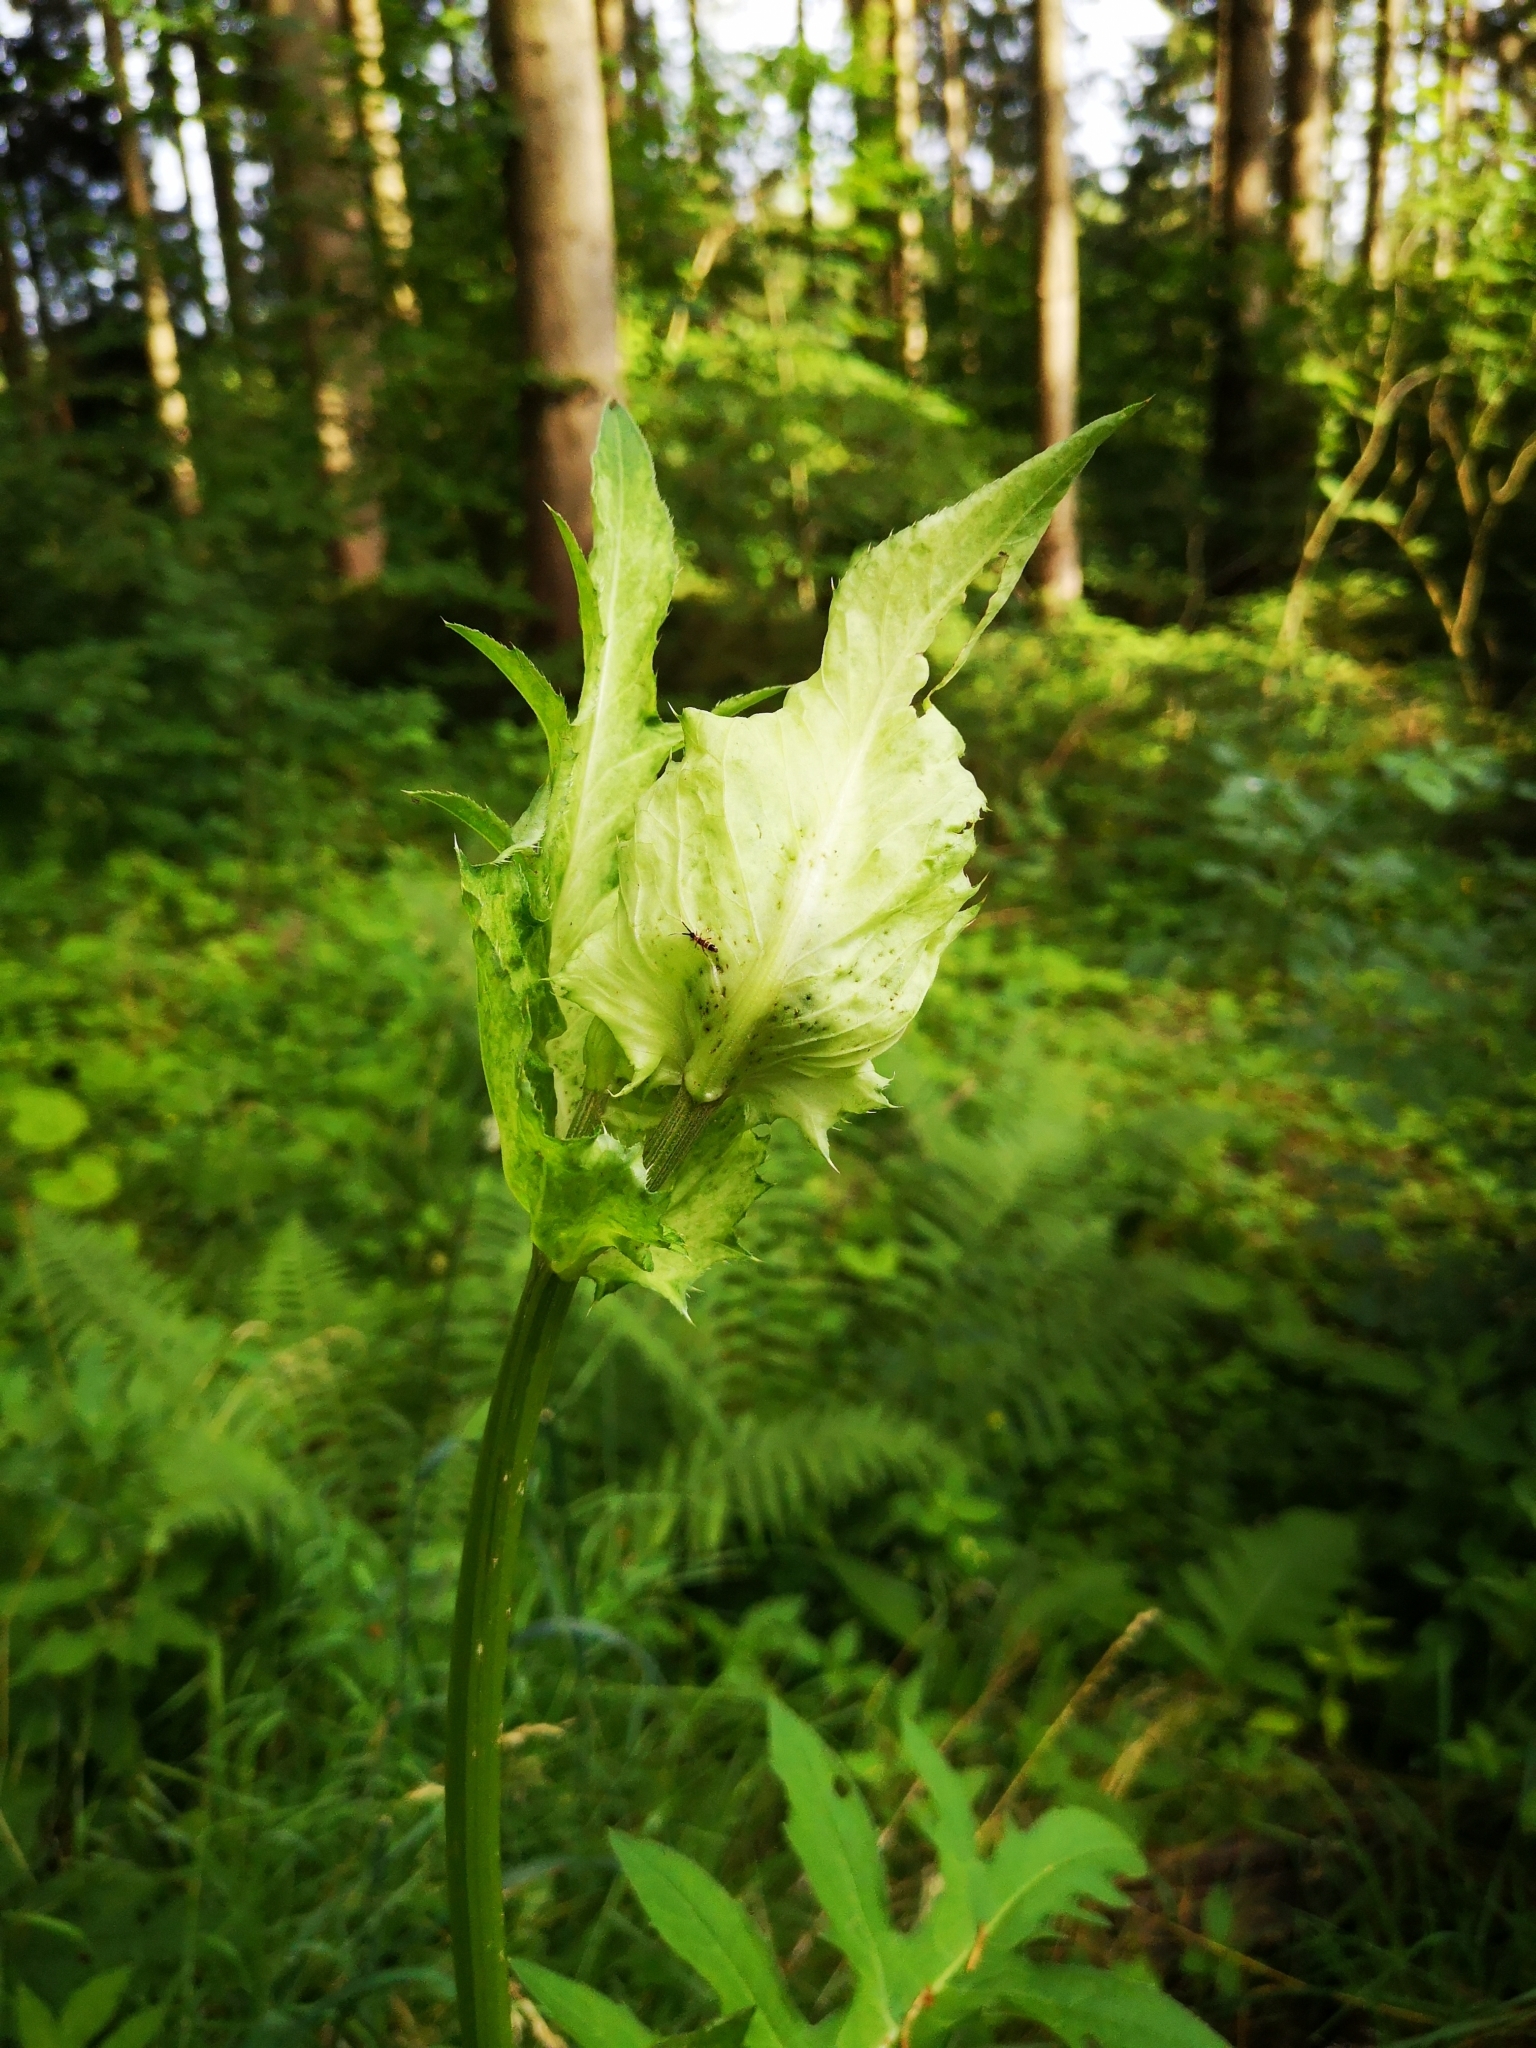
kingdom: Plantae
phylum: Tracheophyta
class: Magnoliopsida
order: Asterales
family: Asteraceae
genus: Cirsium
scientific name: Cirsium oleraceum
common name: Cabbage thistle
